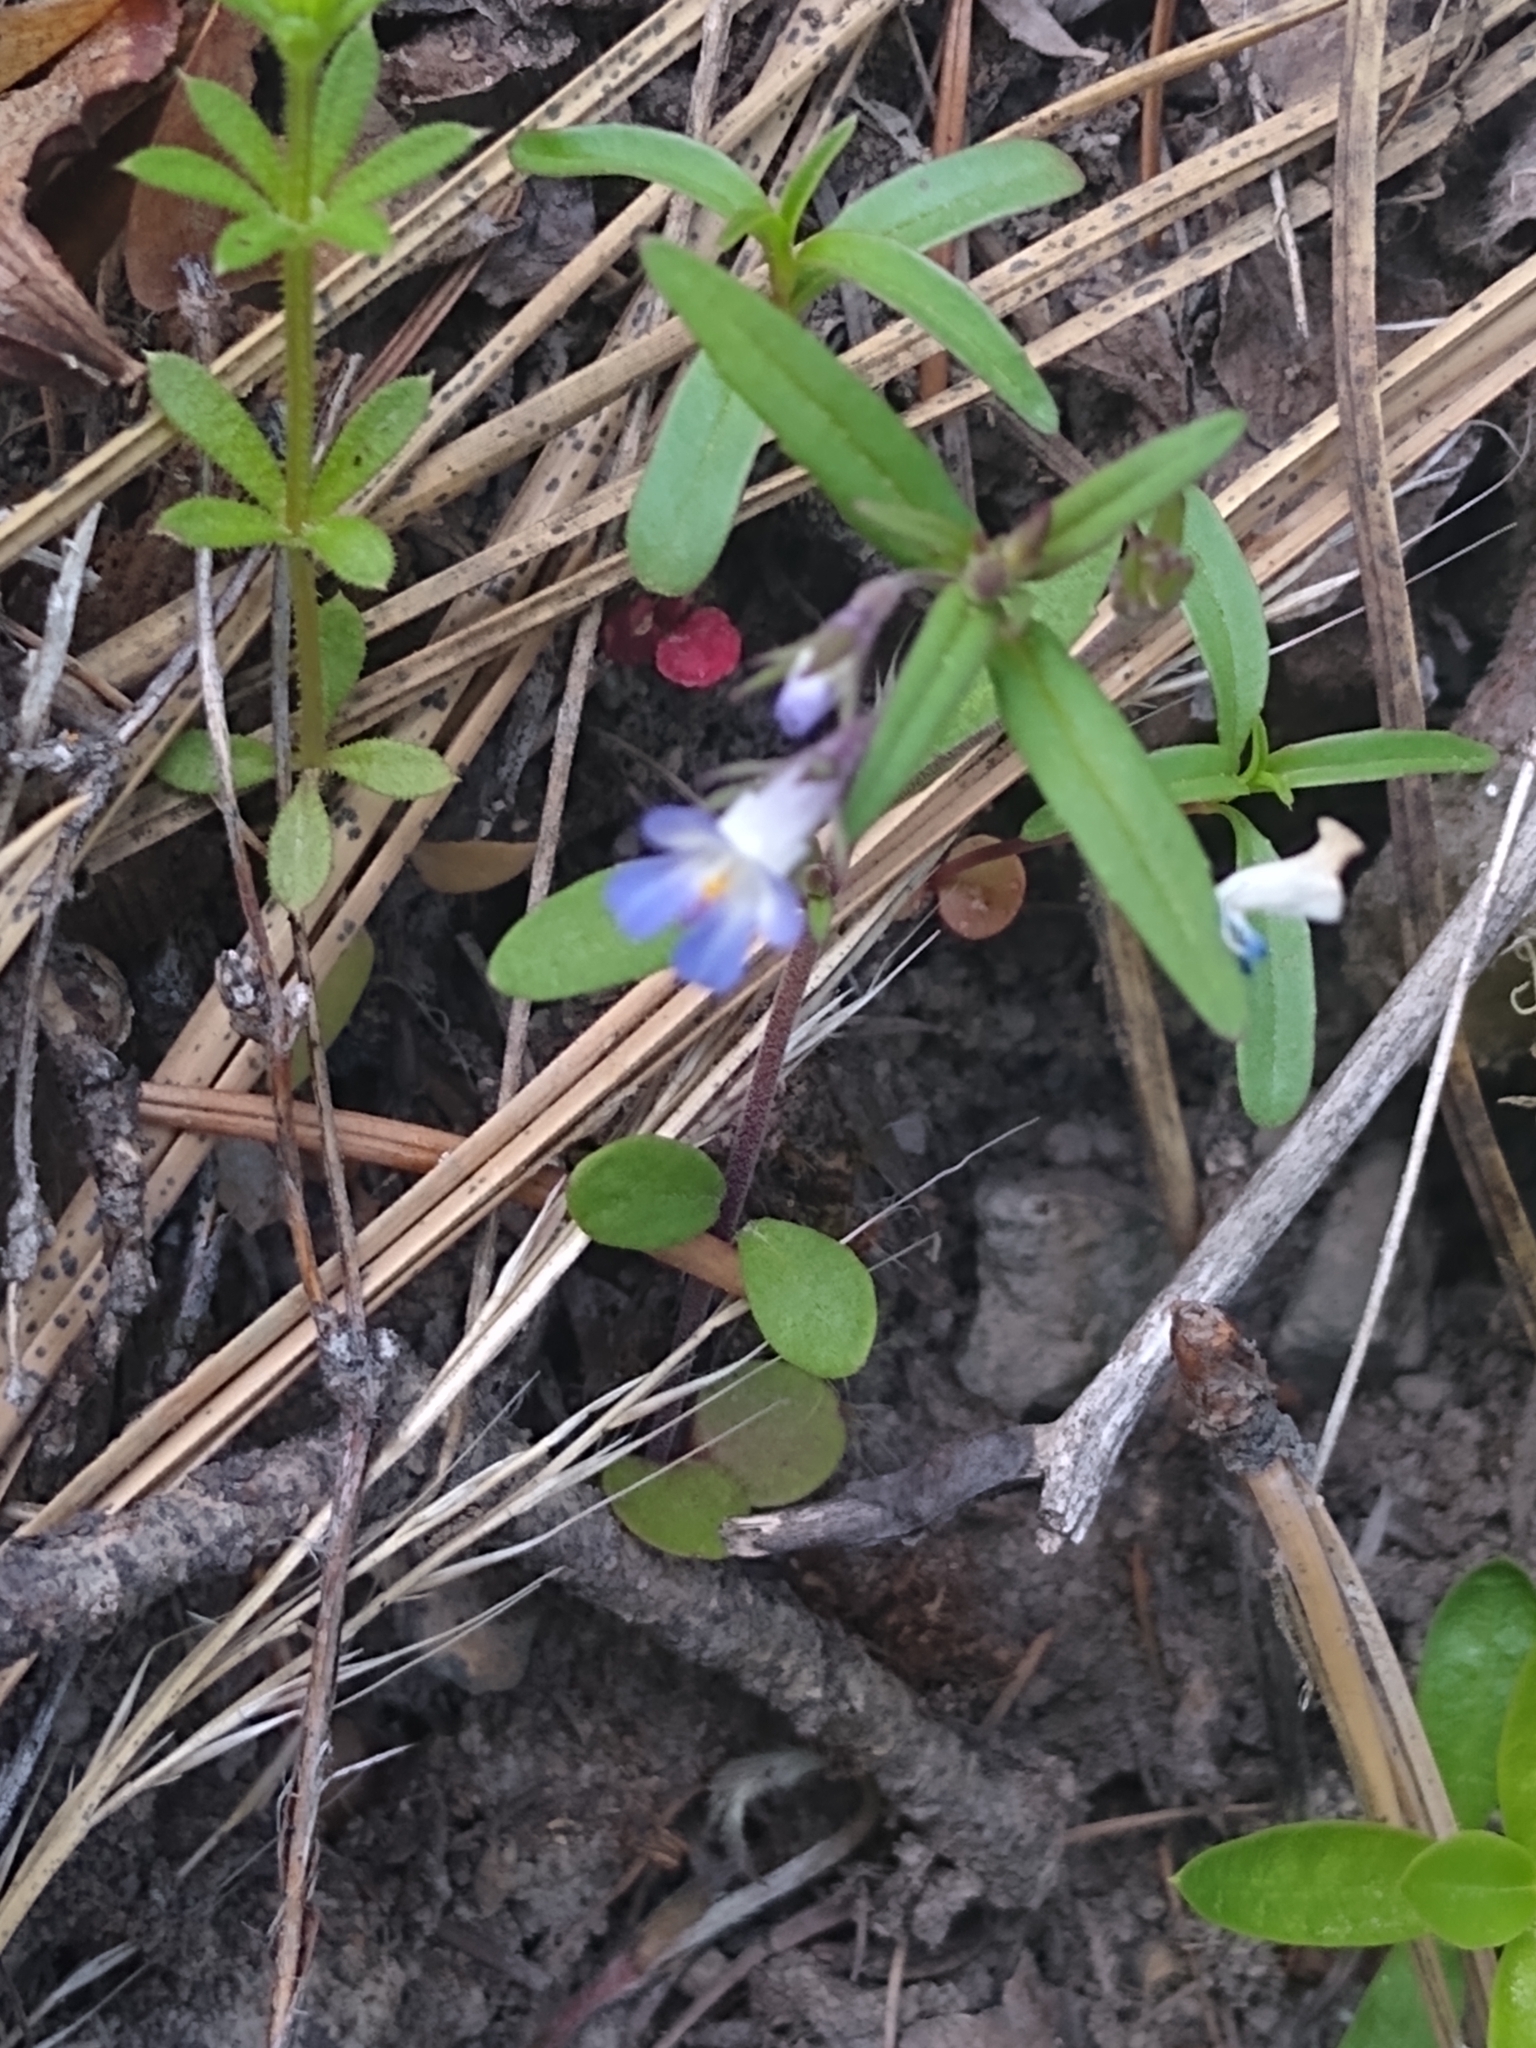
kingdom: Plantae
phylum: Tracheophyta
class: Magnoliopsida
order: Lamiales
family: Plantaginaceae
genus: Collinsia
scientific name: Collinsia parviflora
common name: Blue-lips
